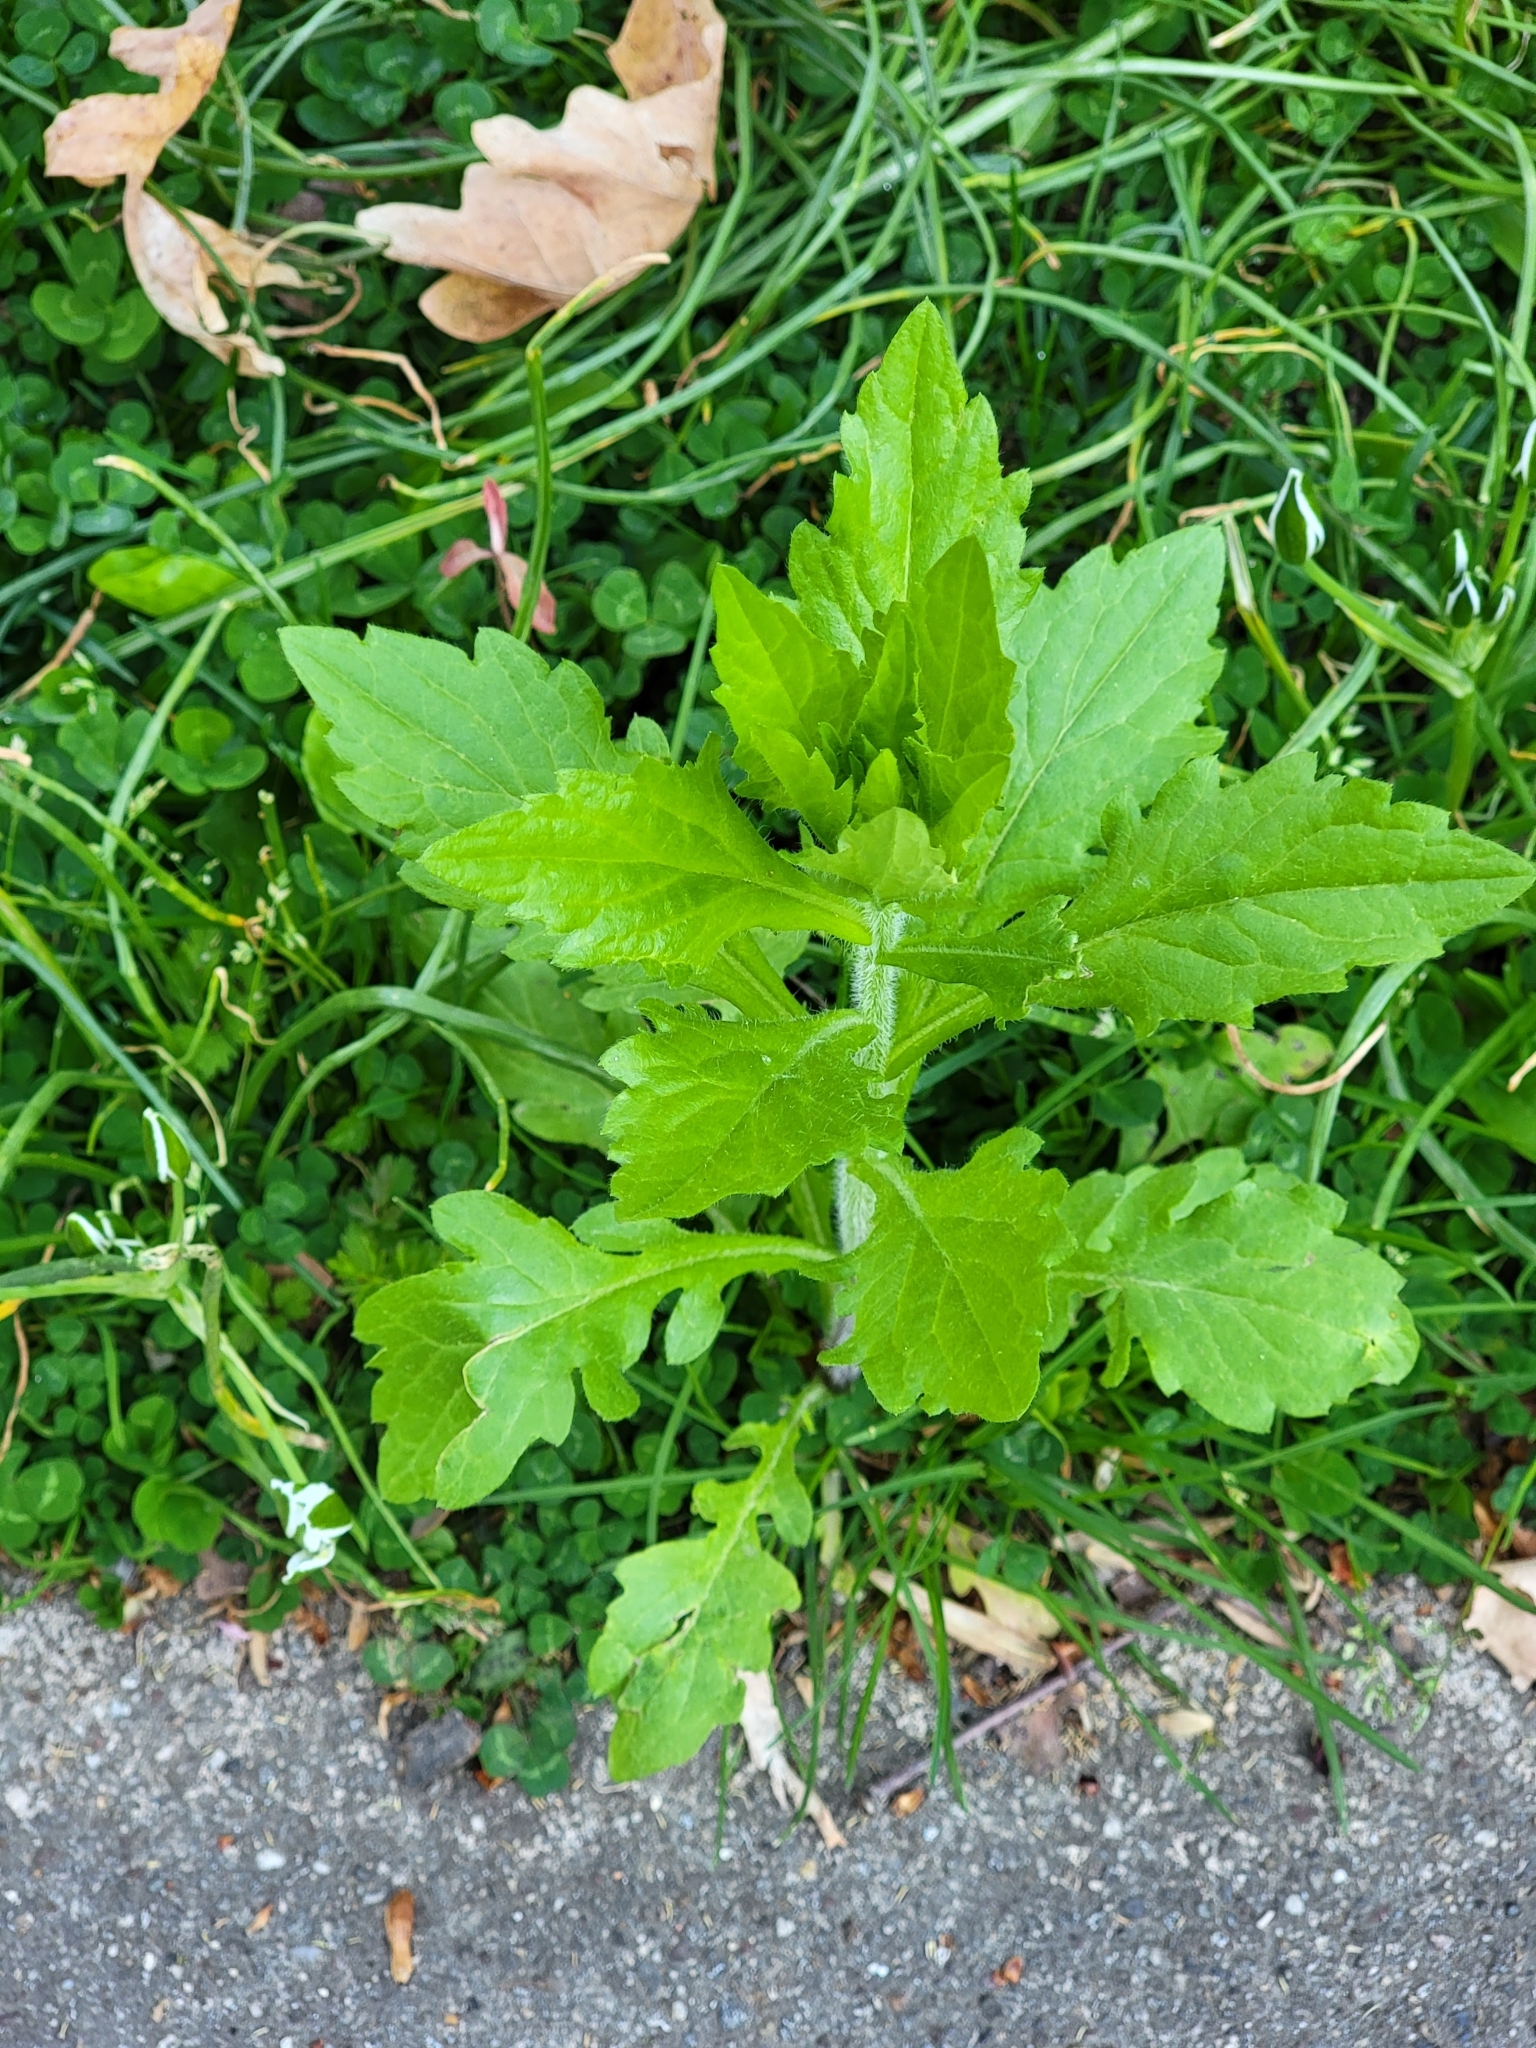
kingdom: Plantae
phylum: Tracheophyta
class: Magnoliopsida
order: Asterales
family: Asteraceae
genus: Erigeron
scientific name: Erigeron annuus
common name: Tall fleabane
